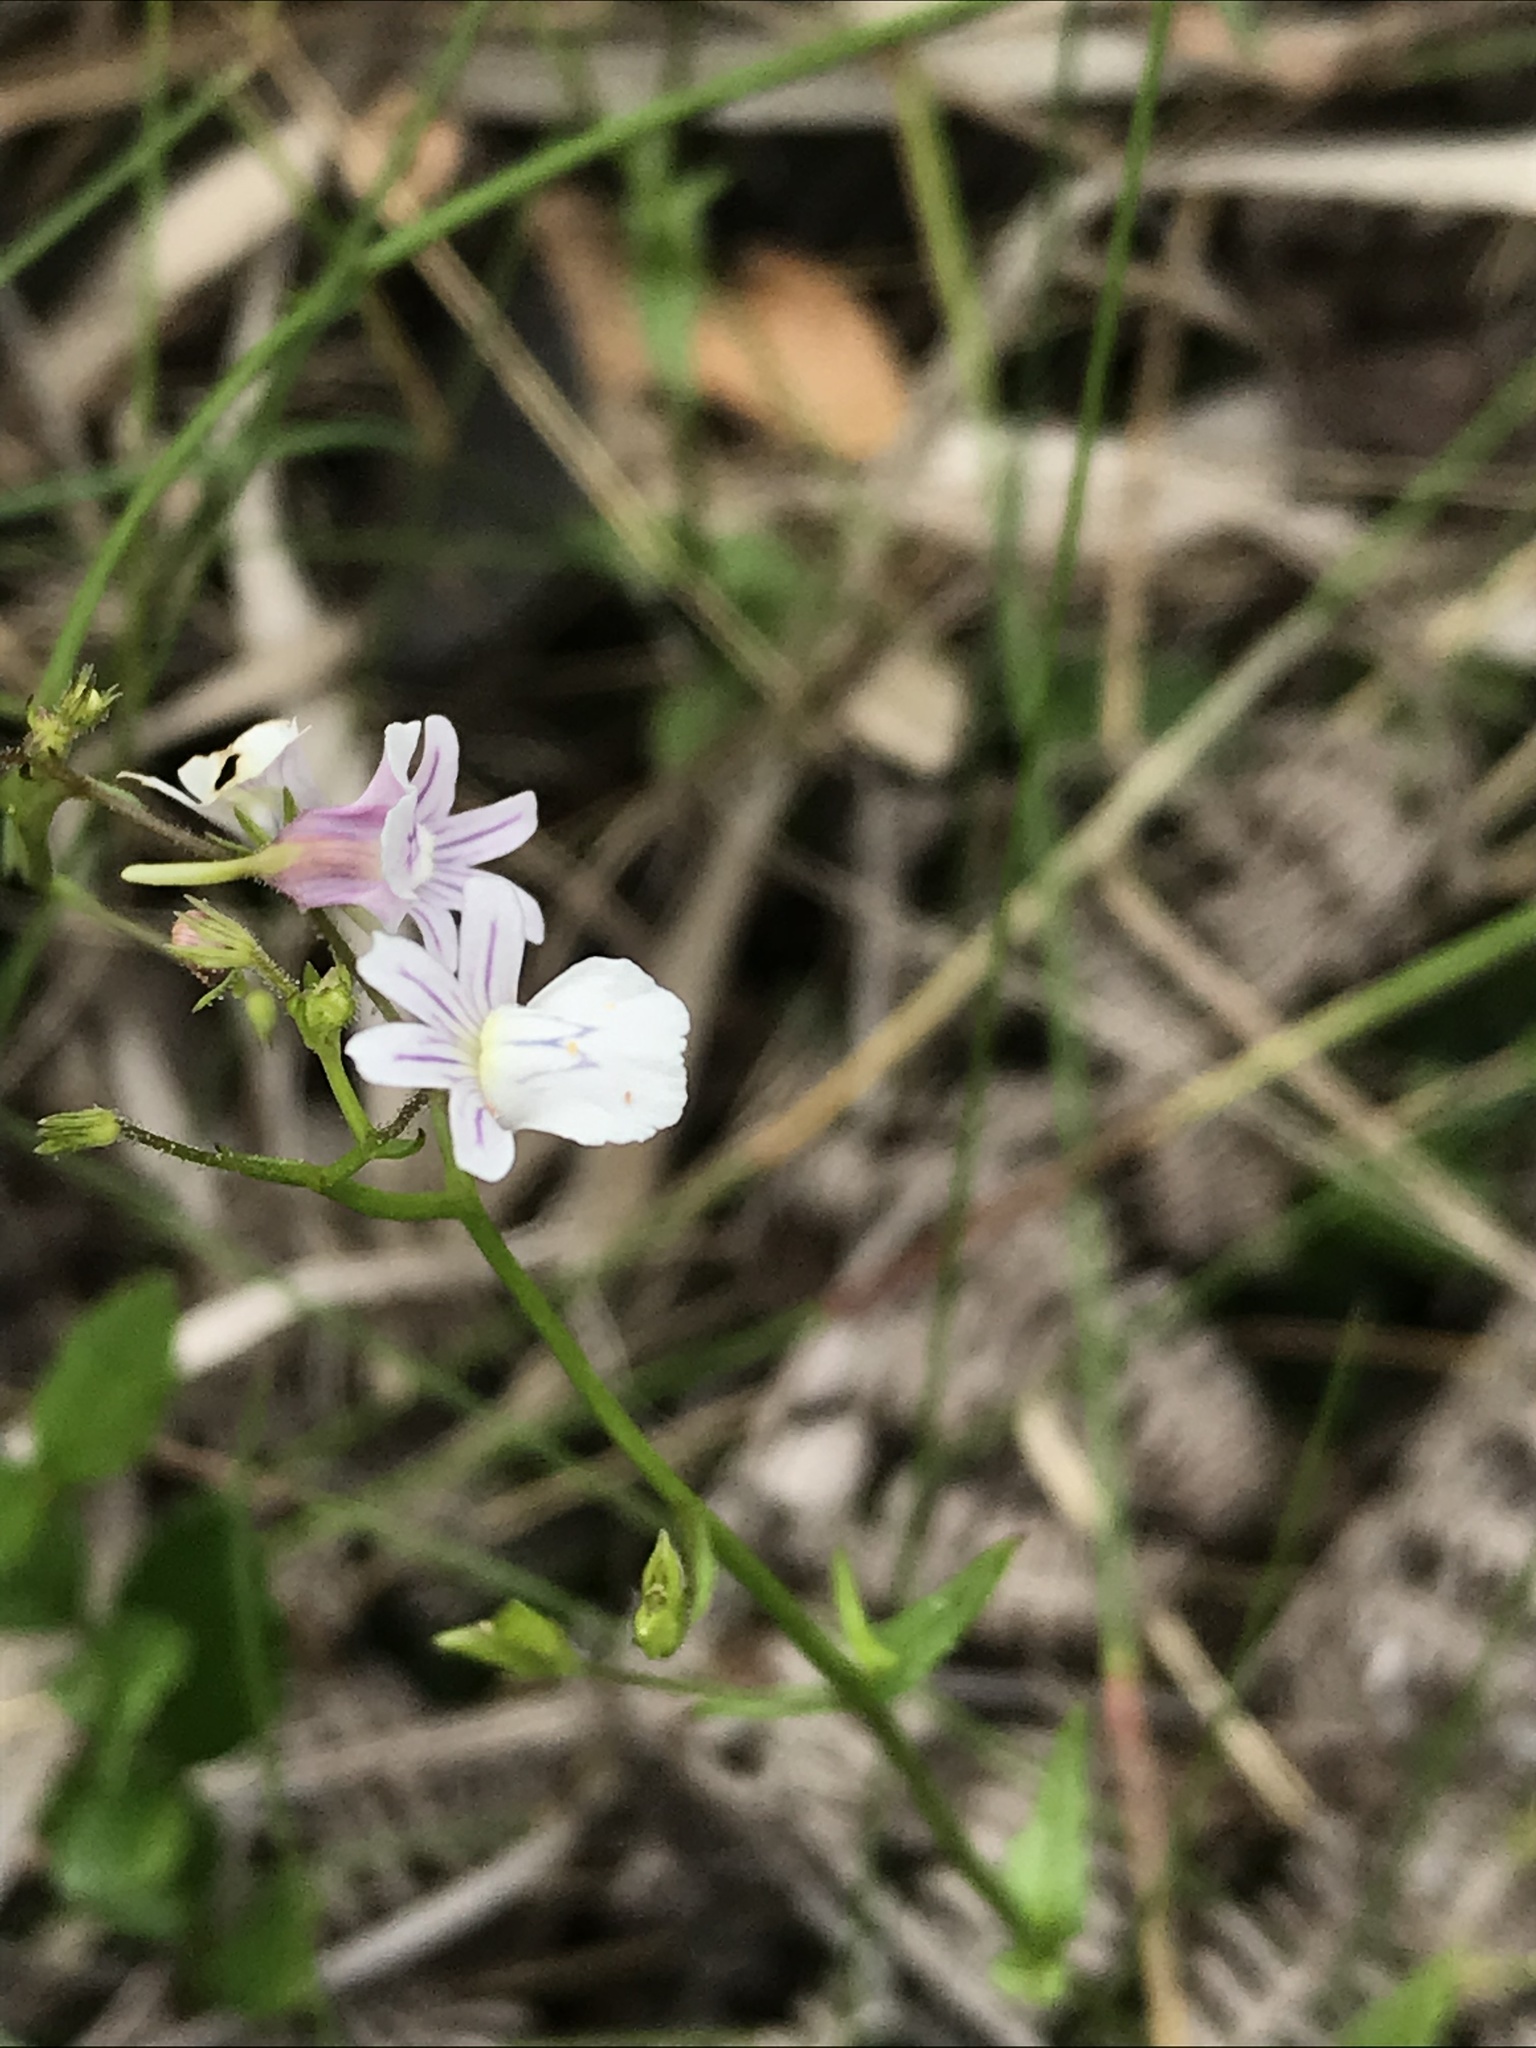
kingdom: Plantae
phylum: Tracheophyta
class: Magnoliopsida
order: Lamiales
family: Scrophulariaceae
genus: Nemesia
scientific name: Nemesia floribunda
